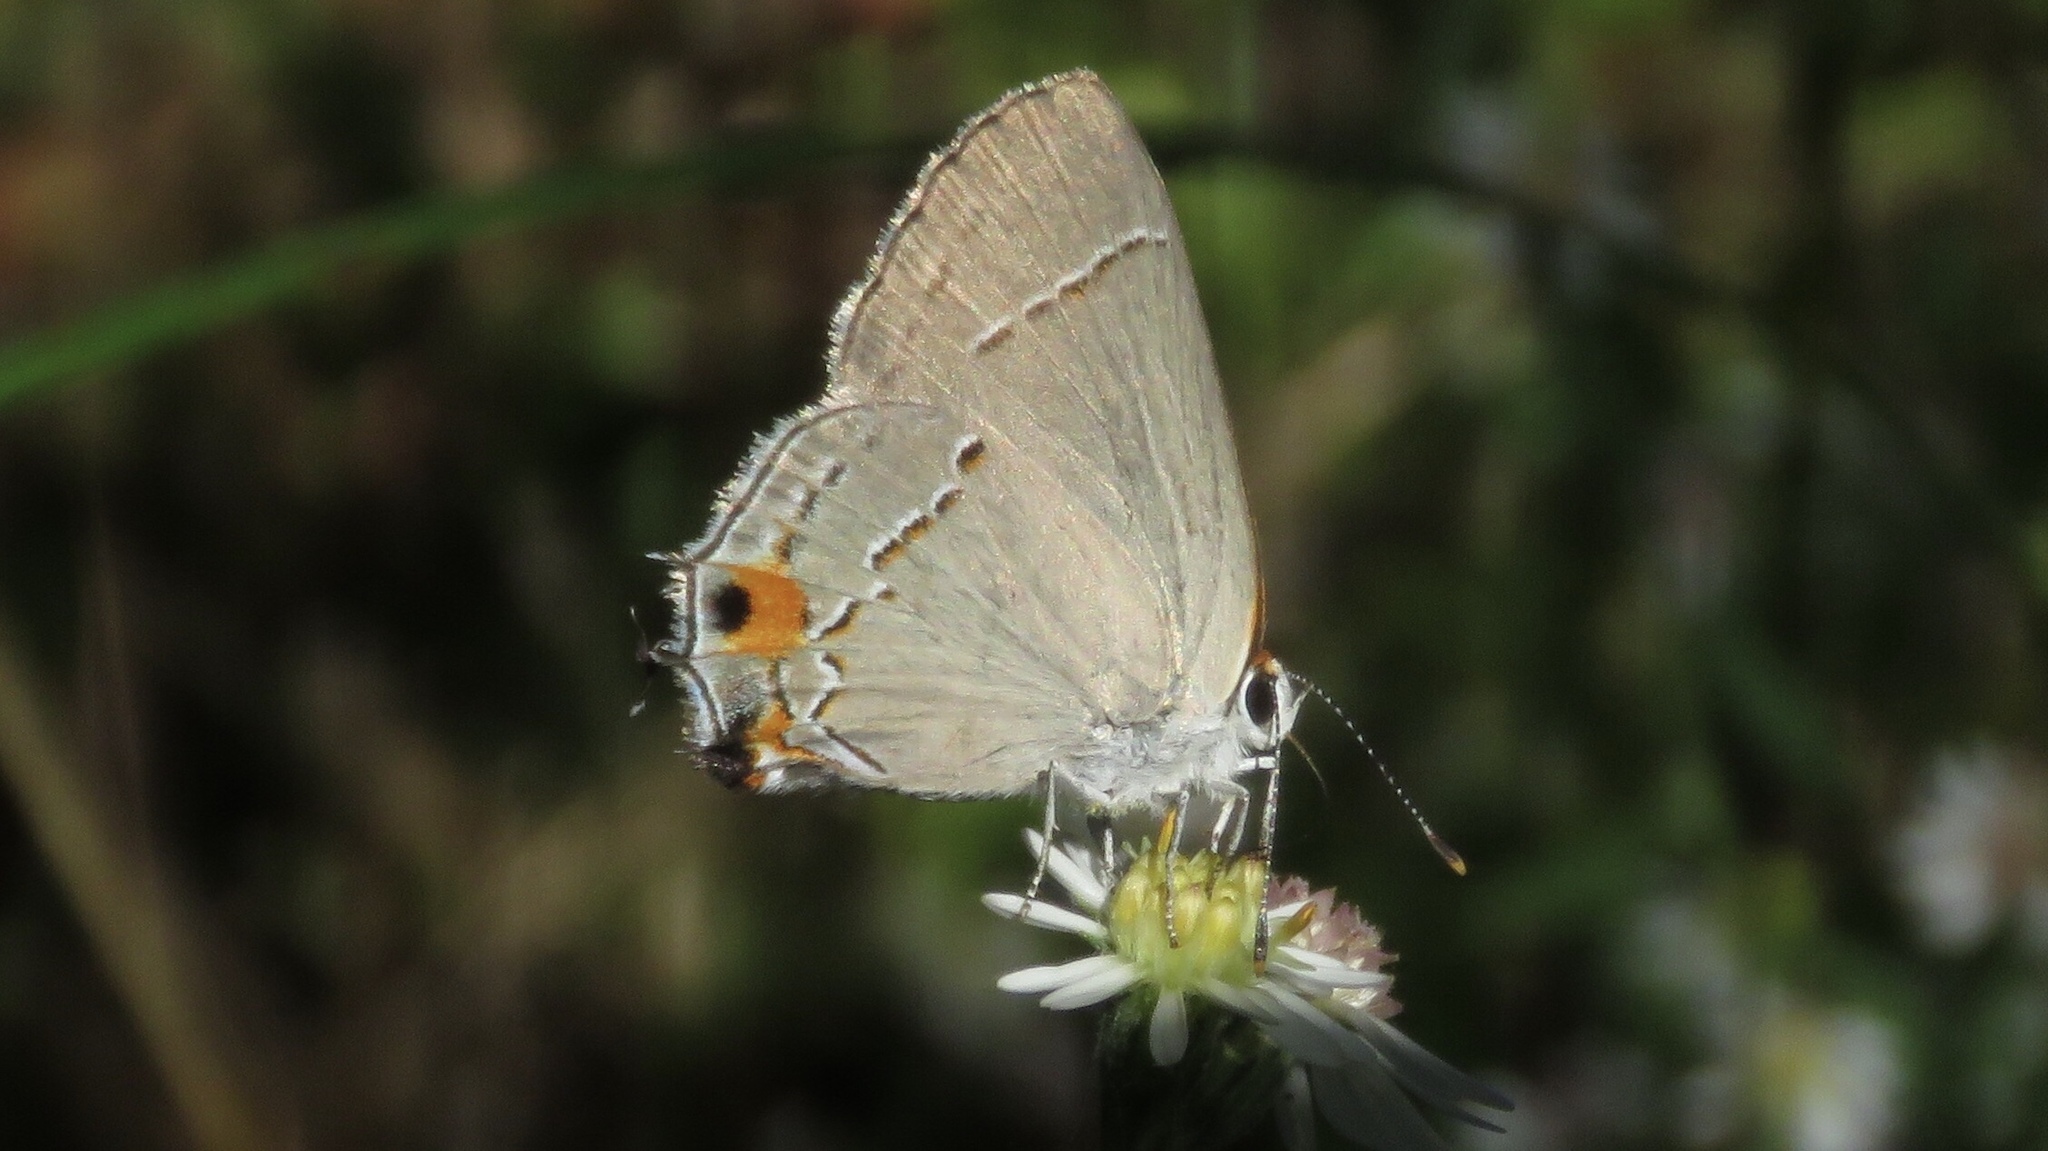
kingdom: Animalia
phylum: Arthropoda
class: Insecta
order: Lepidoptera
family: Lycaenidae
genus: Strymon
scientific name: Strymon melinus
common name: Gray hairstreak
